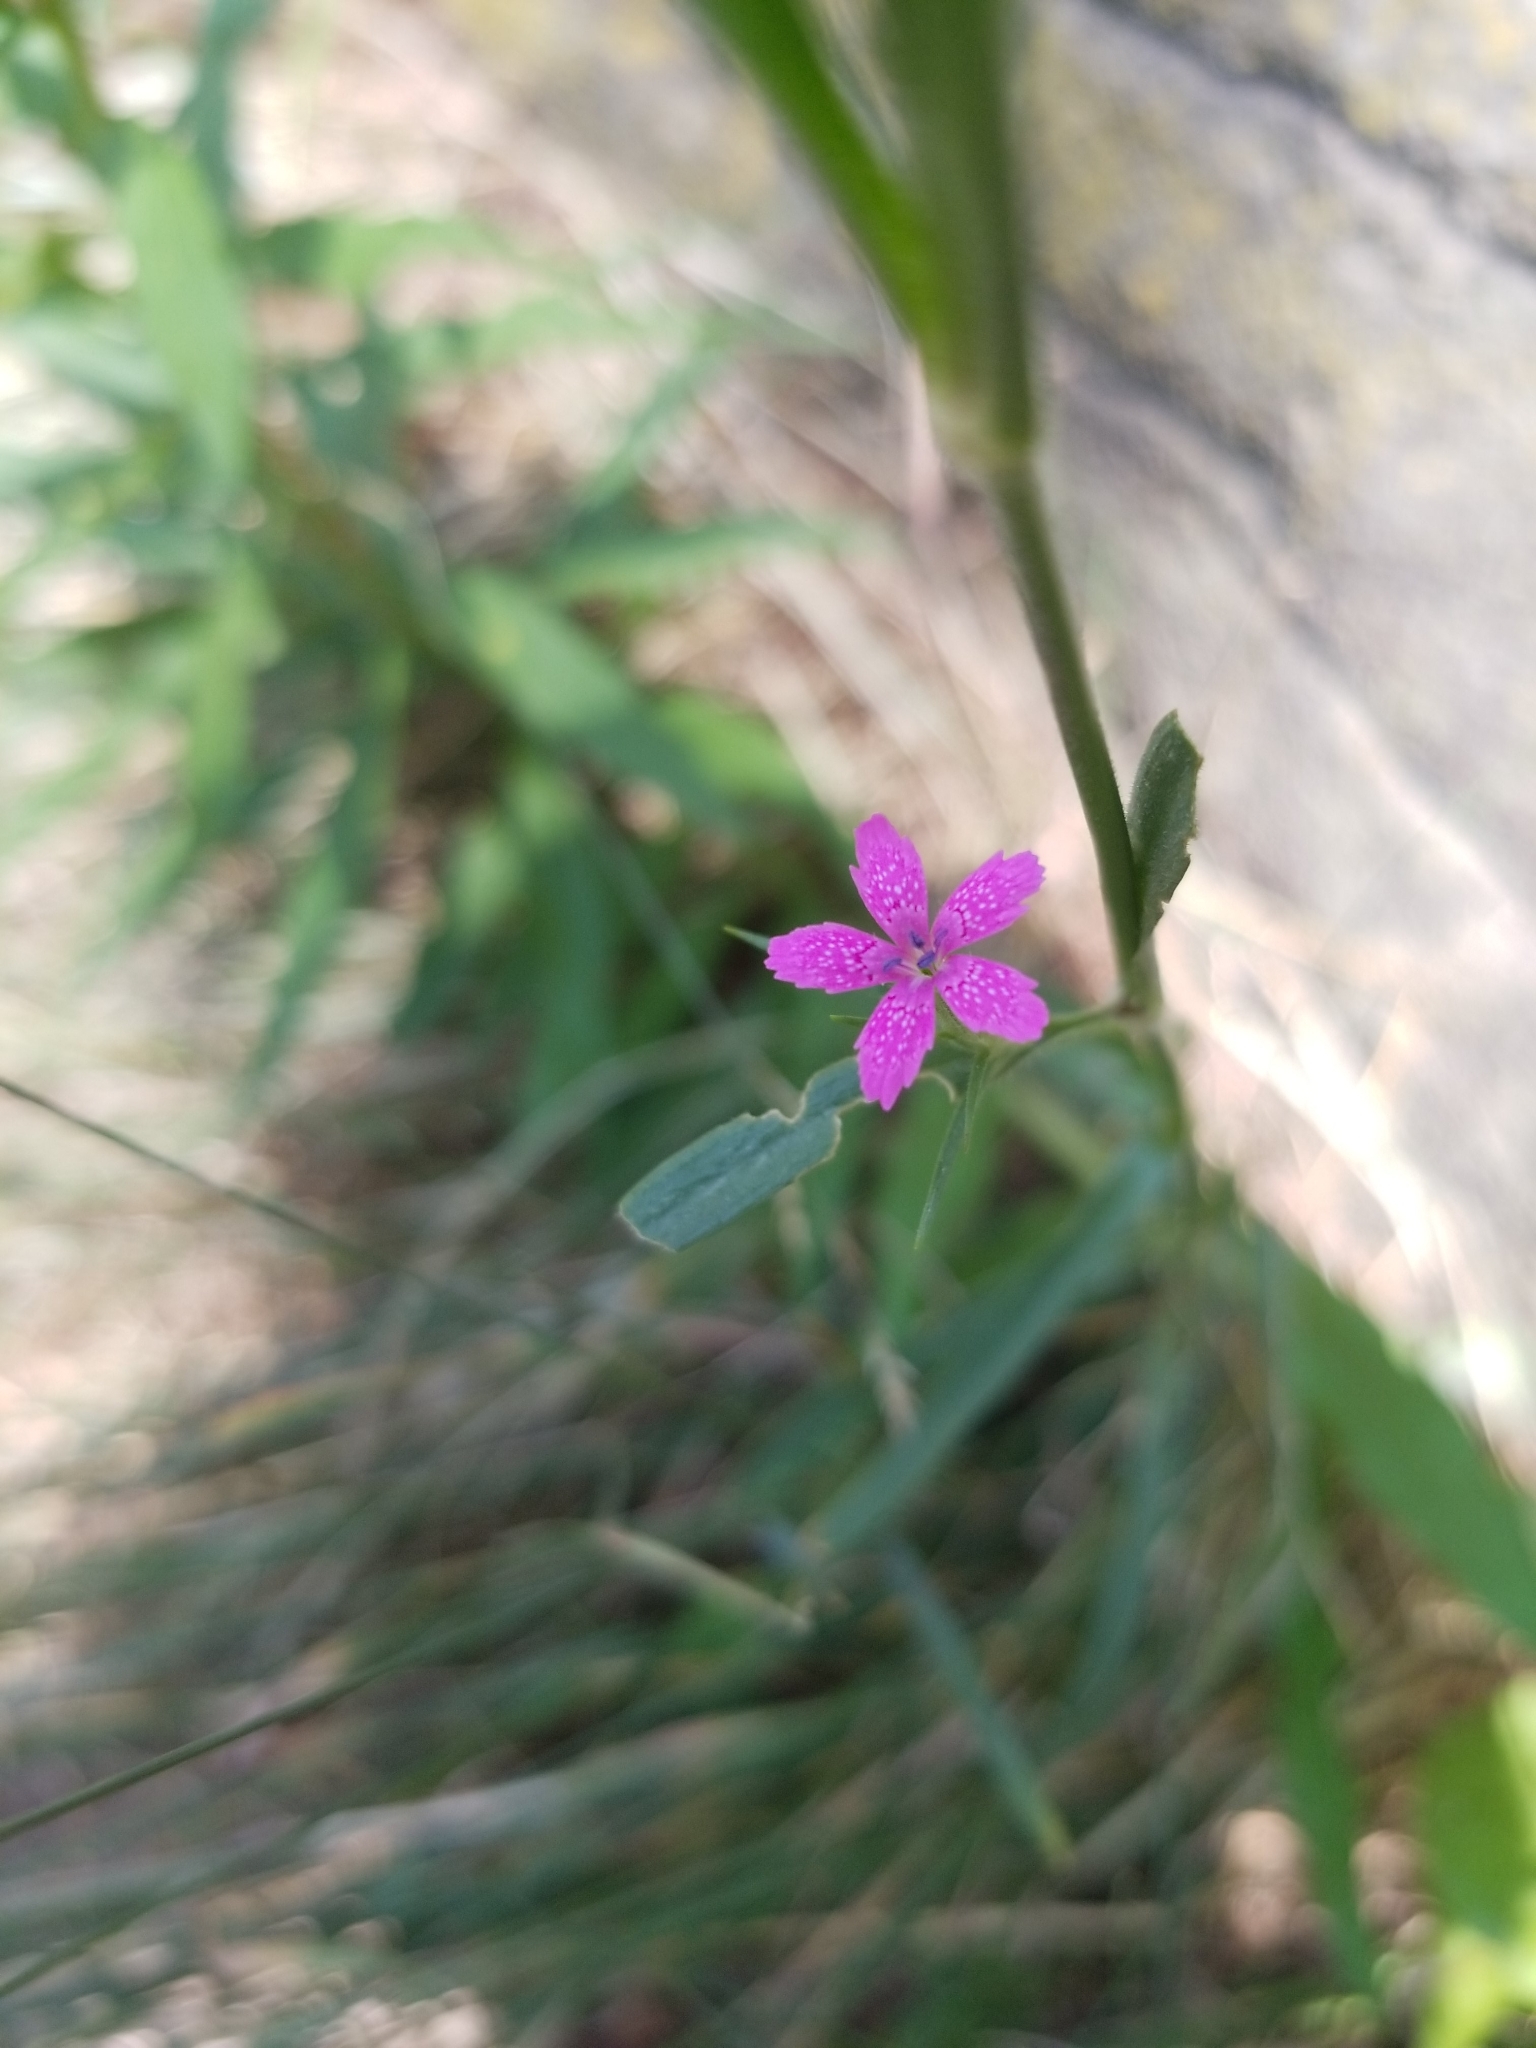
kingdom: Plantae
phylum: Tracheophyta
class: Magnoliopsida
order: Caryophyllales
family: Caryophyllaceae
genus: Dianthus
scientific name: Dianthus armeria
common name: Deptford pink
